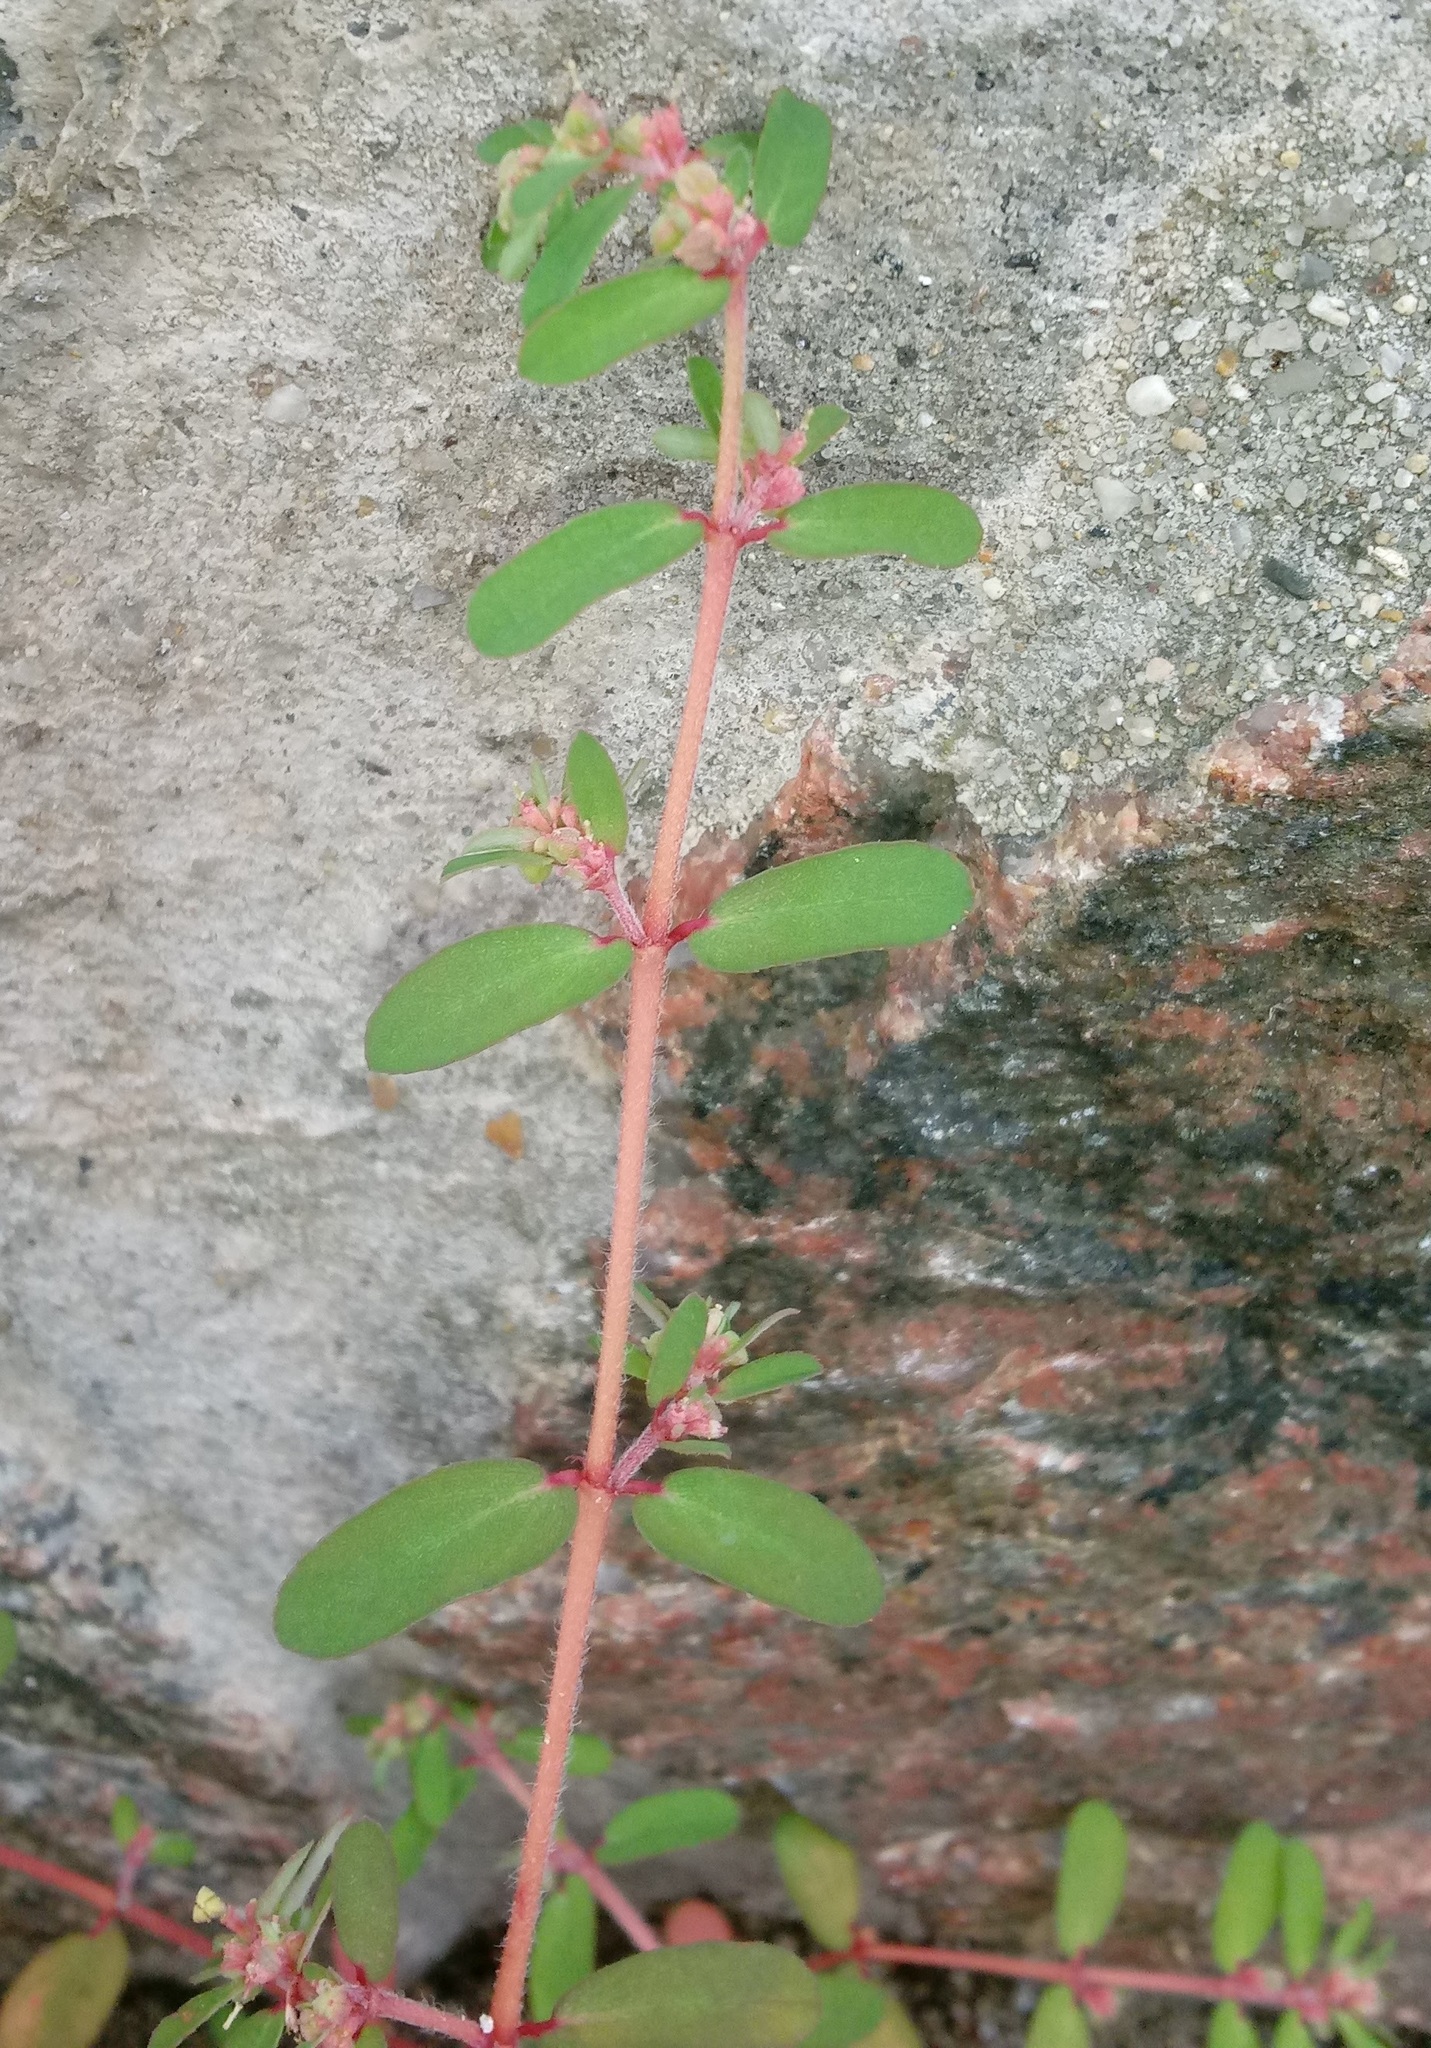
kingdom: Plantae
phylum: Tracheophyta
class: Magnoliopsida
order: Malpighiales
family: Euphorbiaceae
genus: Euphorbia
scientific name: Euphorbia maculata
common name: Spotted spurge
